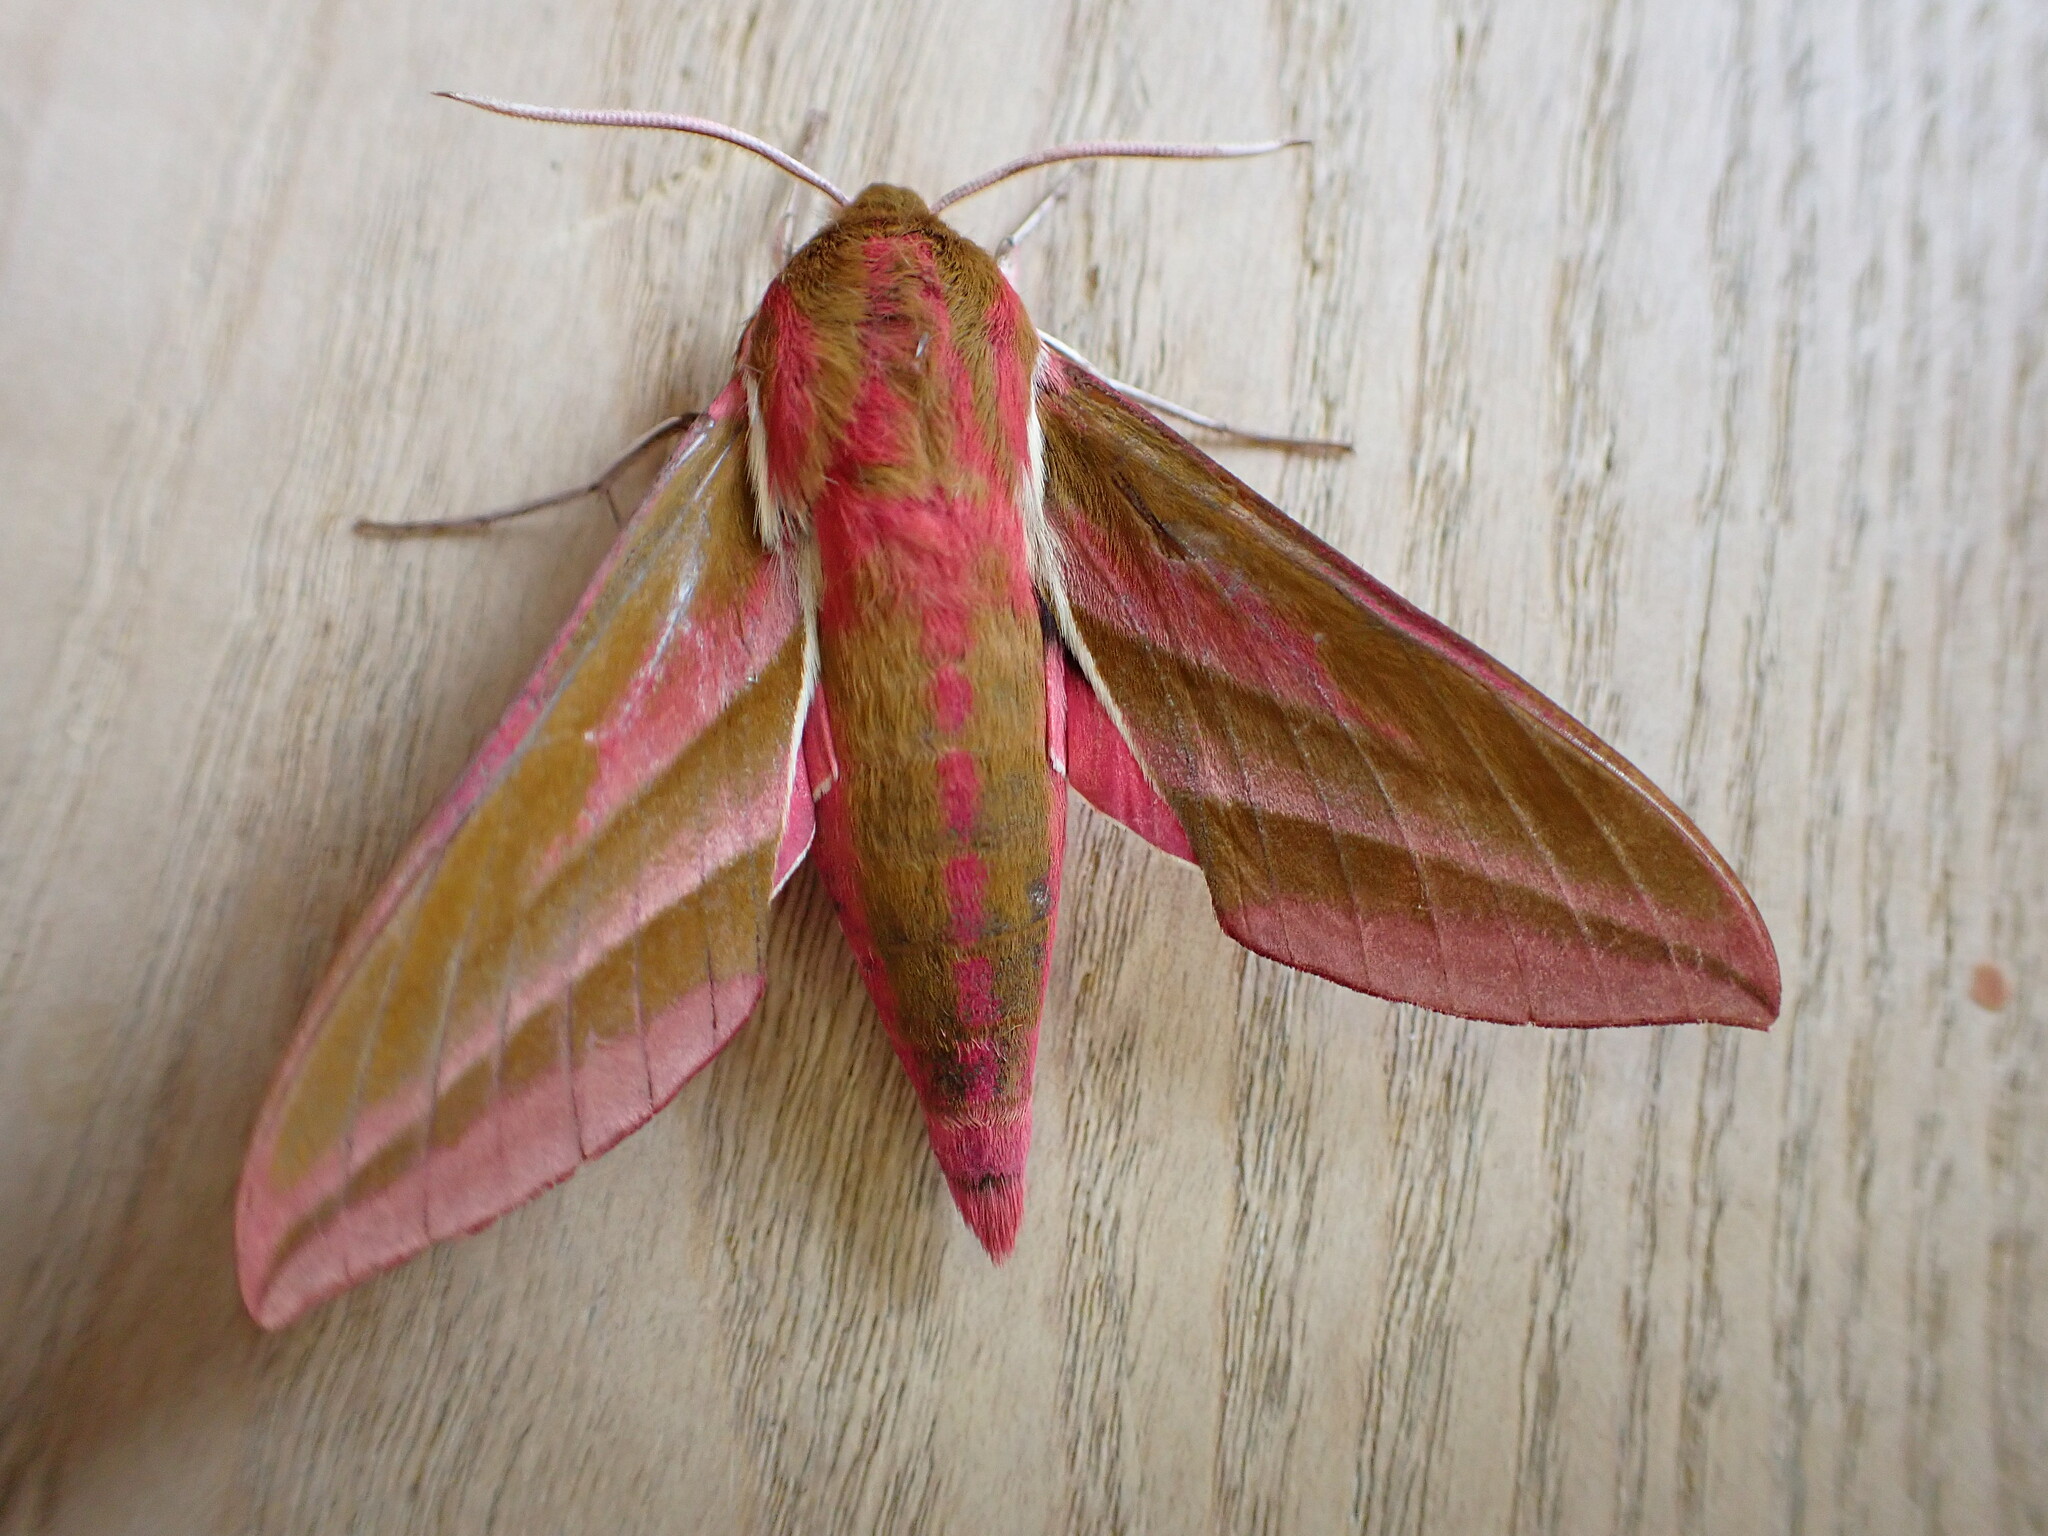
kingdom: Animalia
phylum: Arthropoda
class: Insecta
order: Lepidoptera
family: Sphingidae
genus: Deilephila
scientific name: Deilephila elpenor
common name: Elephant hawk-moth
